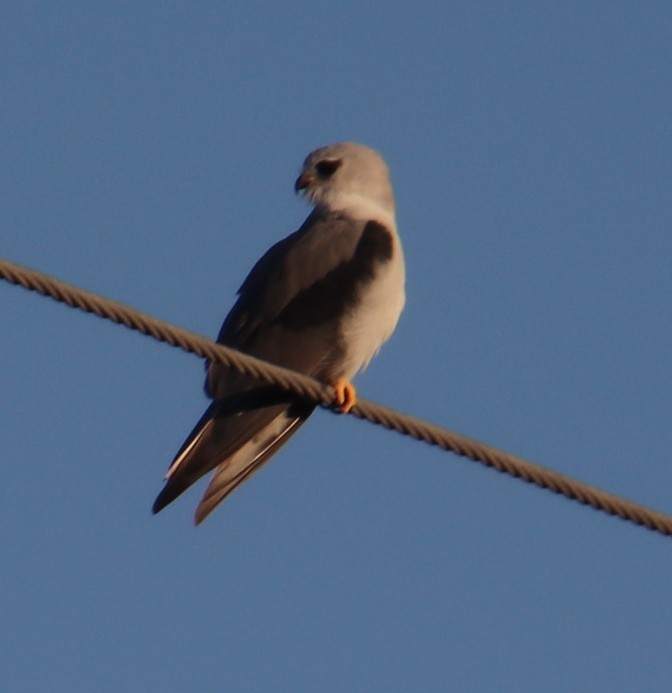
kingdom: Animalia
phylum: Chordata
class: Aves
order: Accipitriformes
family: Accipitridae
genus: Elanus
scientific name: Elanus caeruleus
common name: Black-winged kite
